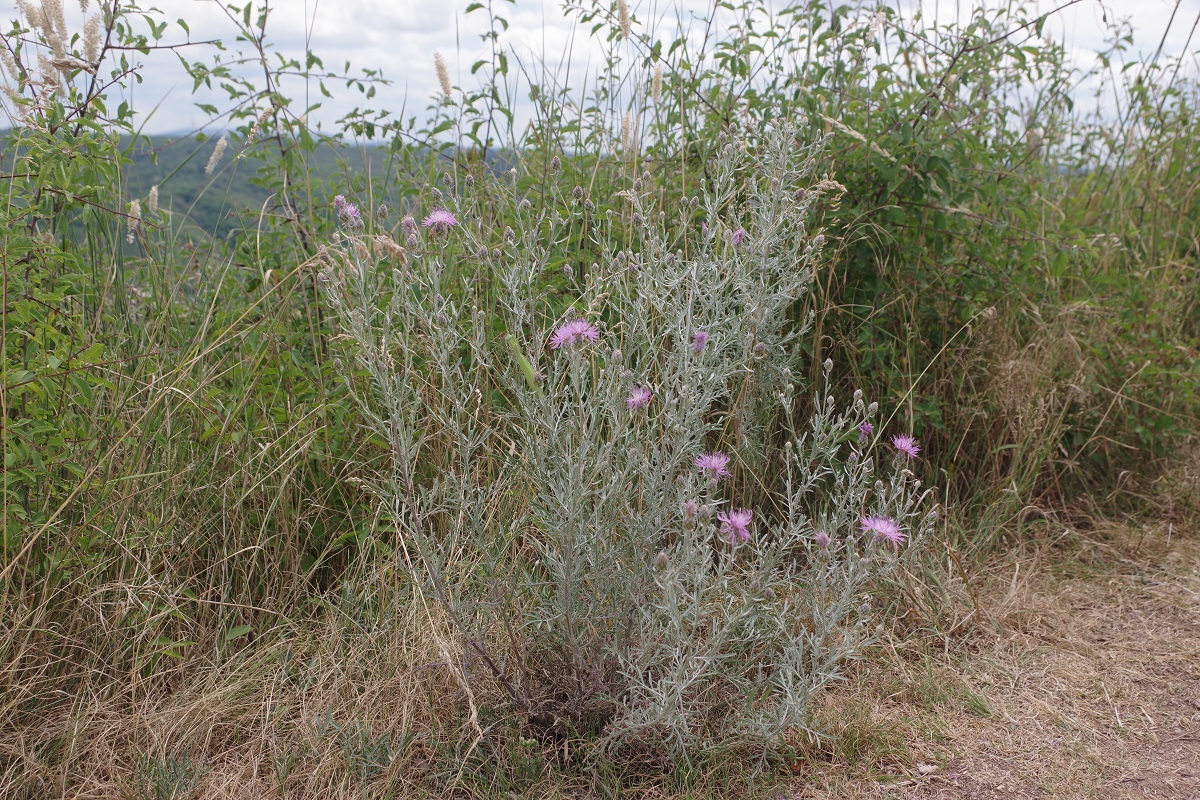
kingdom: Plantae
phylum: Tracheophyta
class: Magnoliopsida
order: Asterales
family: Asteraceae
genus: Centaurea
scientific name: Centaurea stoebe
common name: Spotted knapweed
